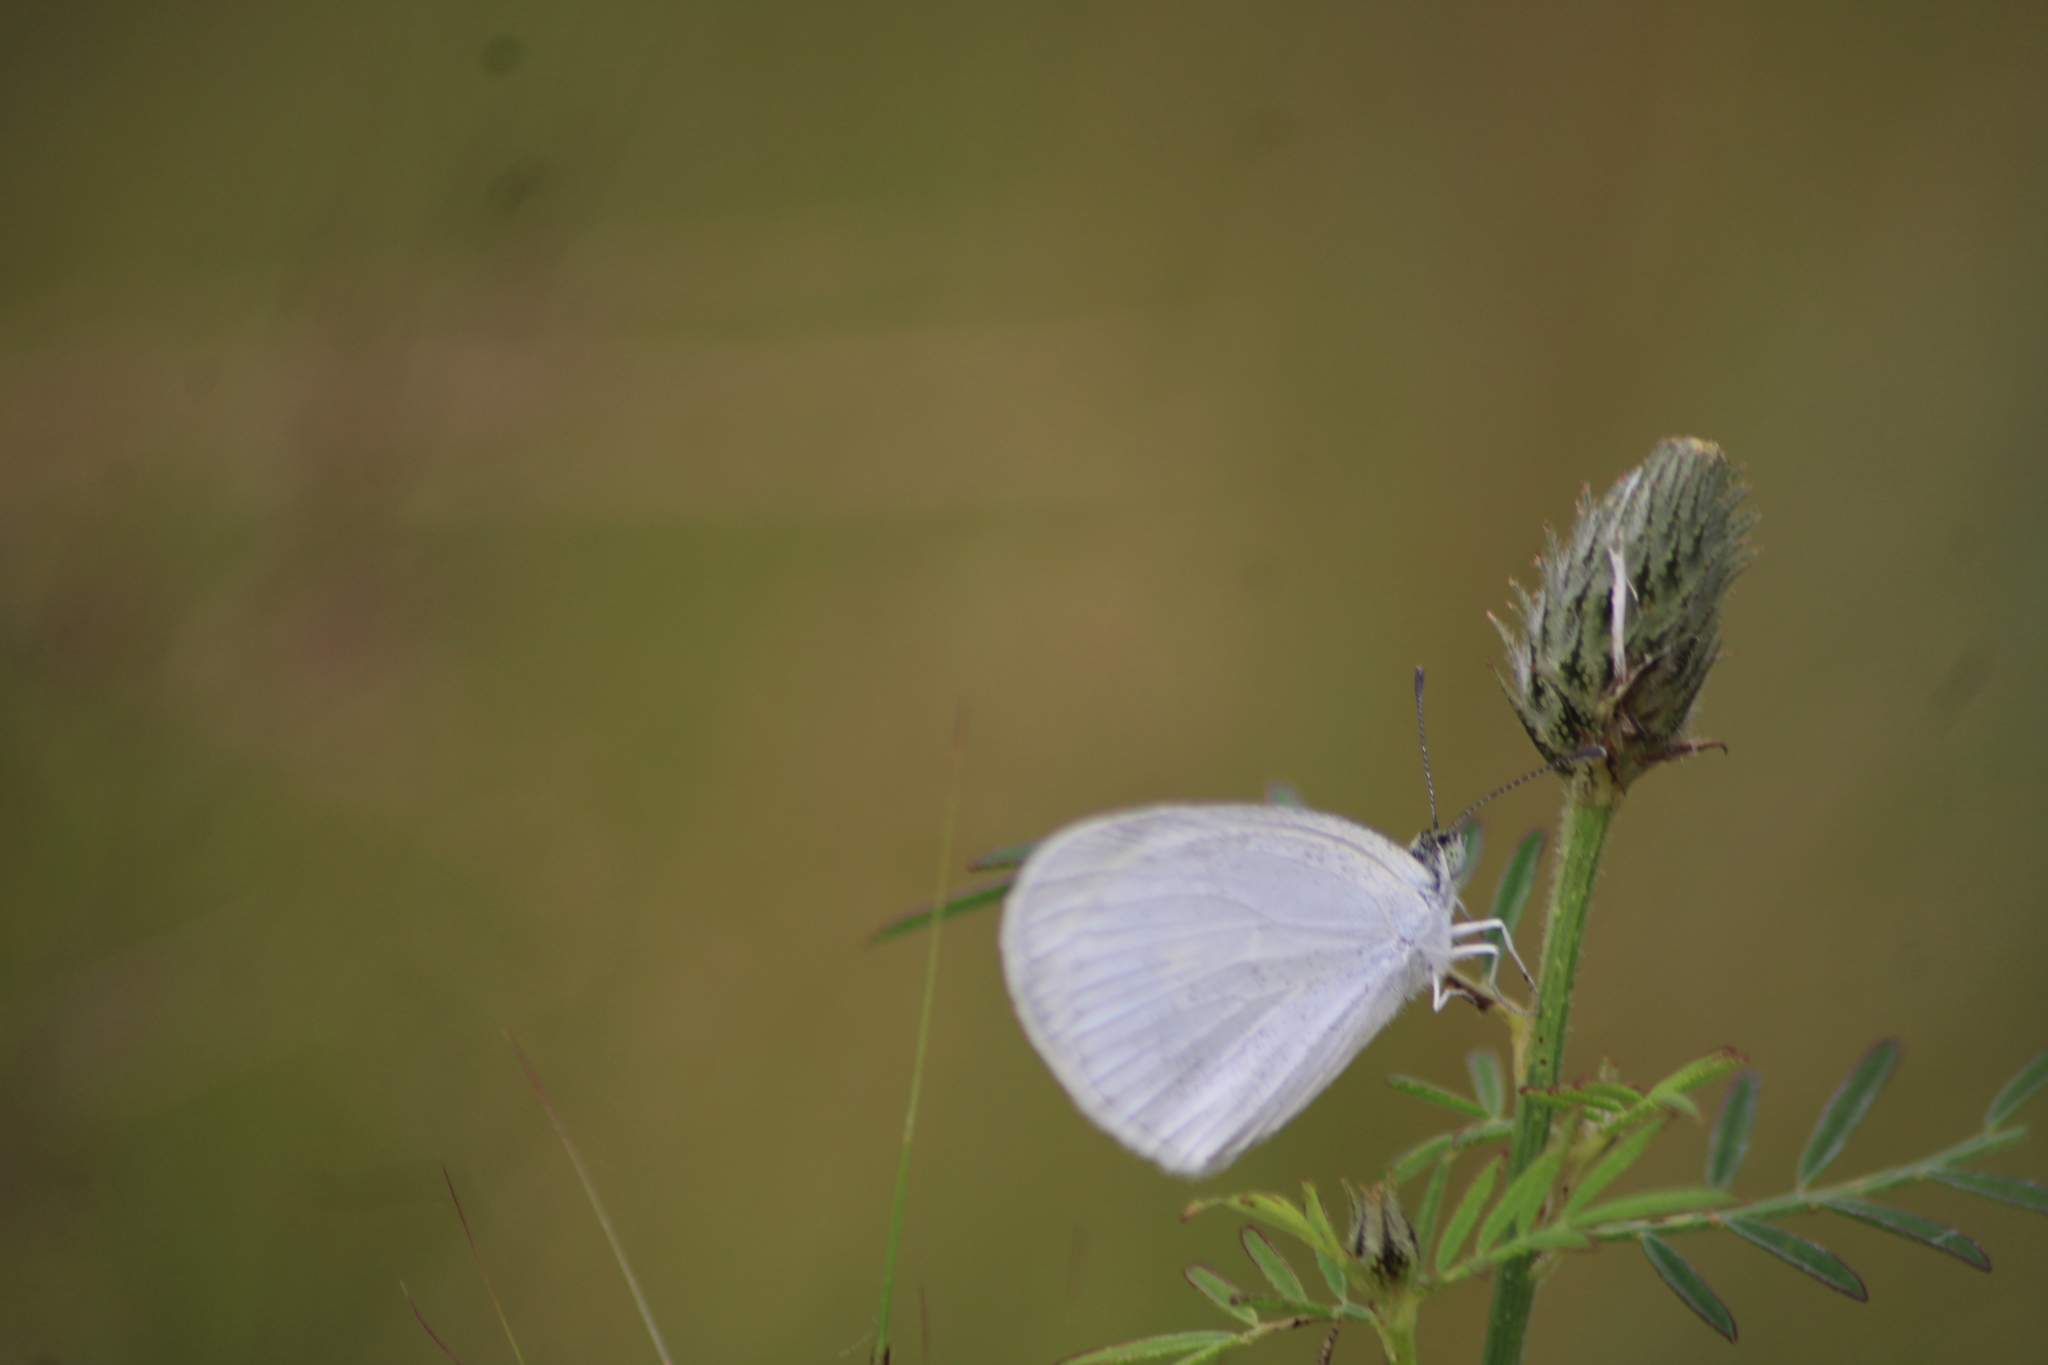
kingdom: Animalia
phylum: Arthropoda
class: Insecta
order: Lepidoptera
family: Pieridae
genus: Eurema
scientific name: Eurema daira
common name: Barred sulphur
